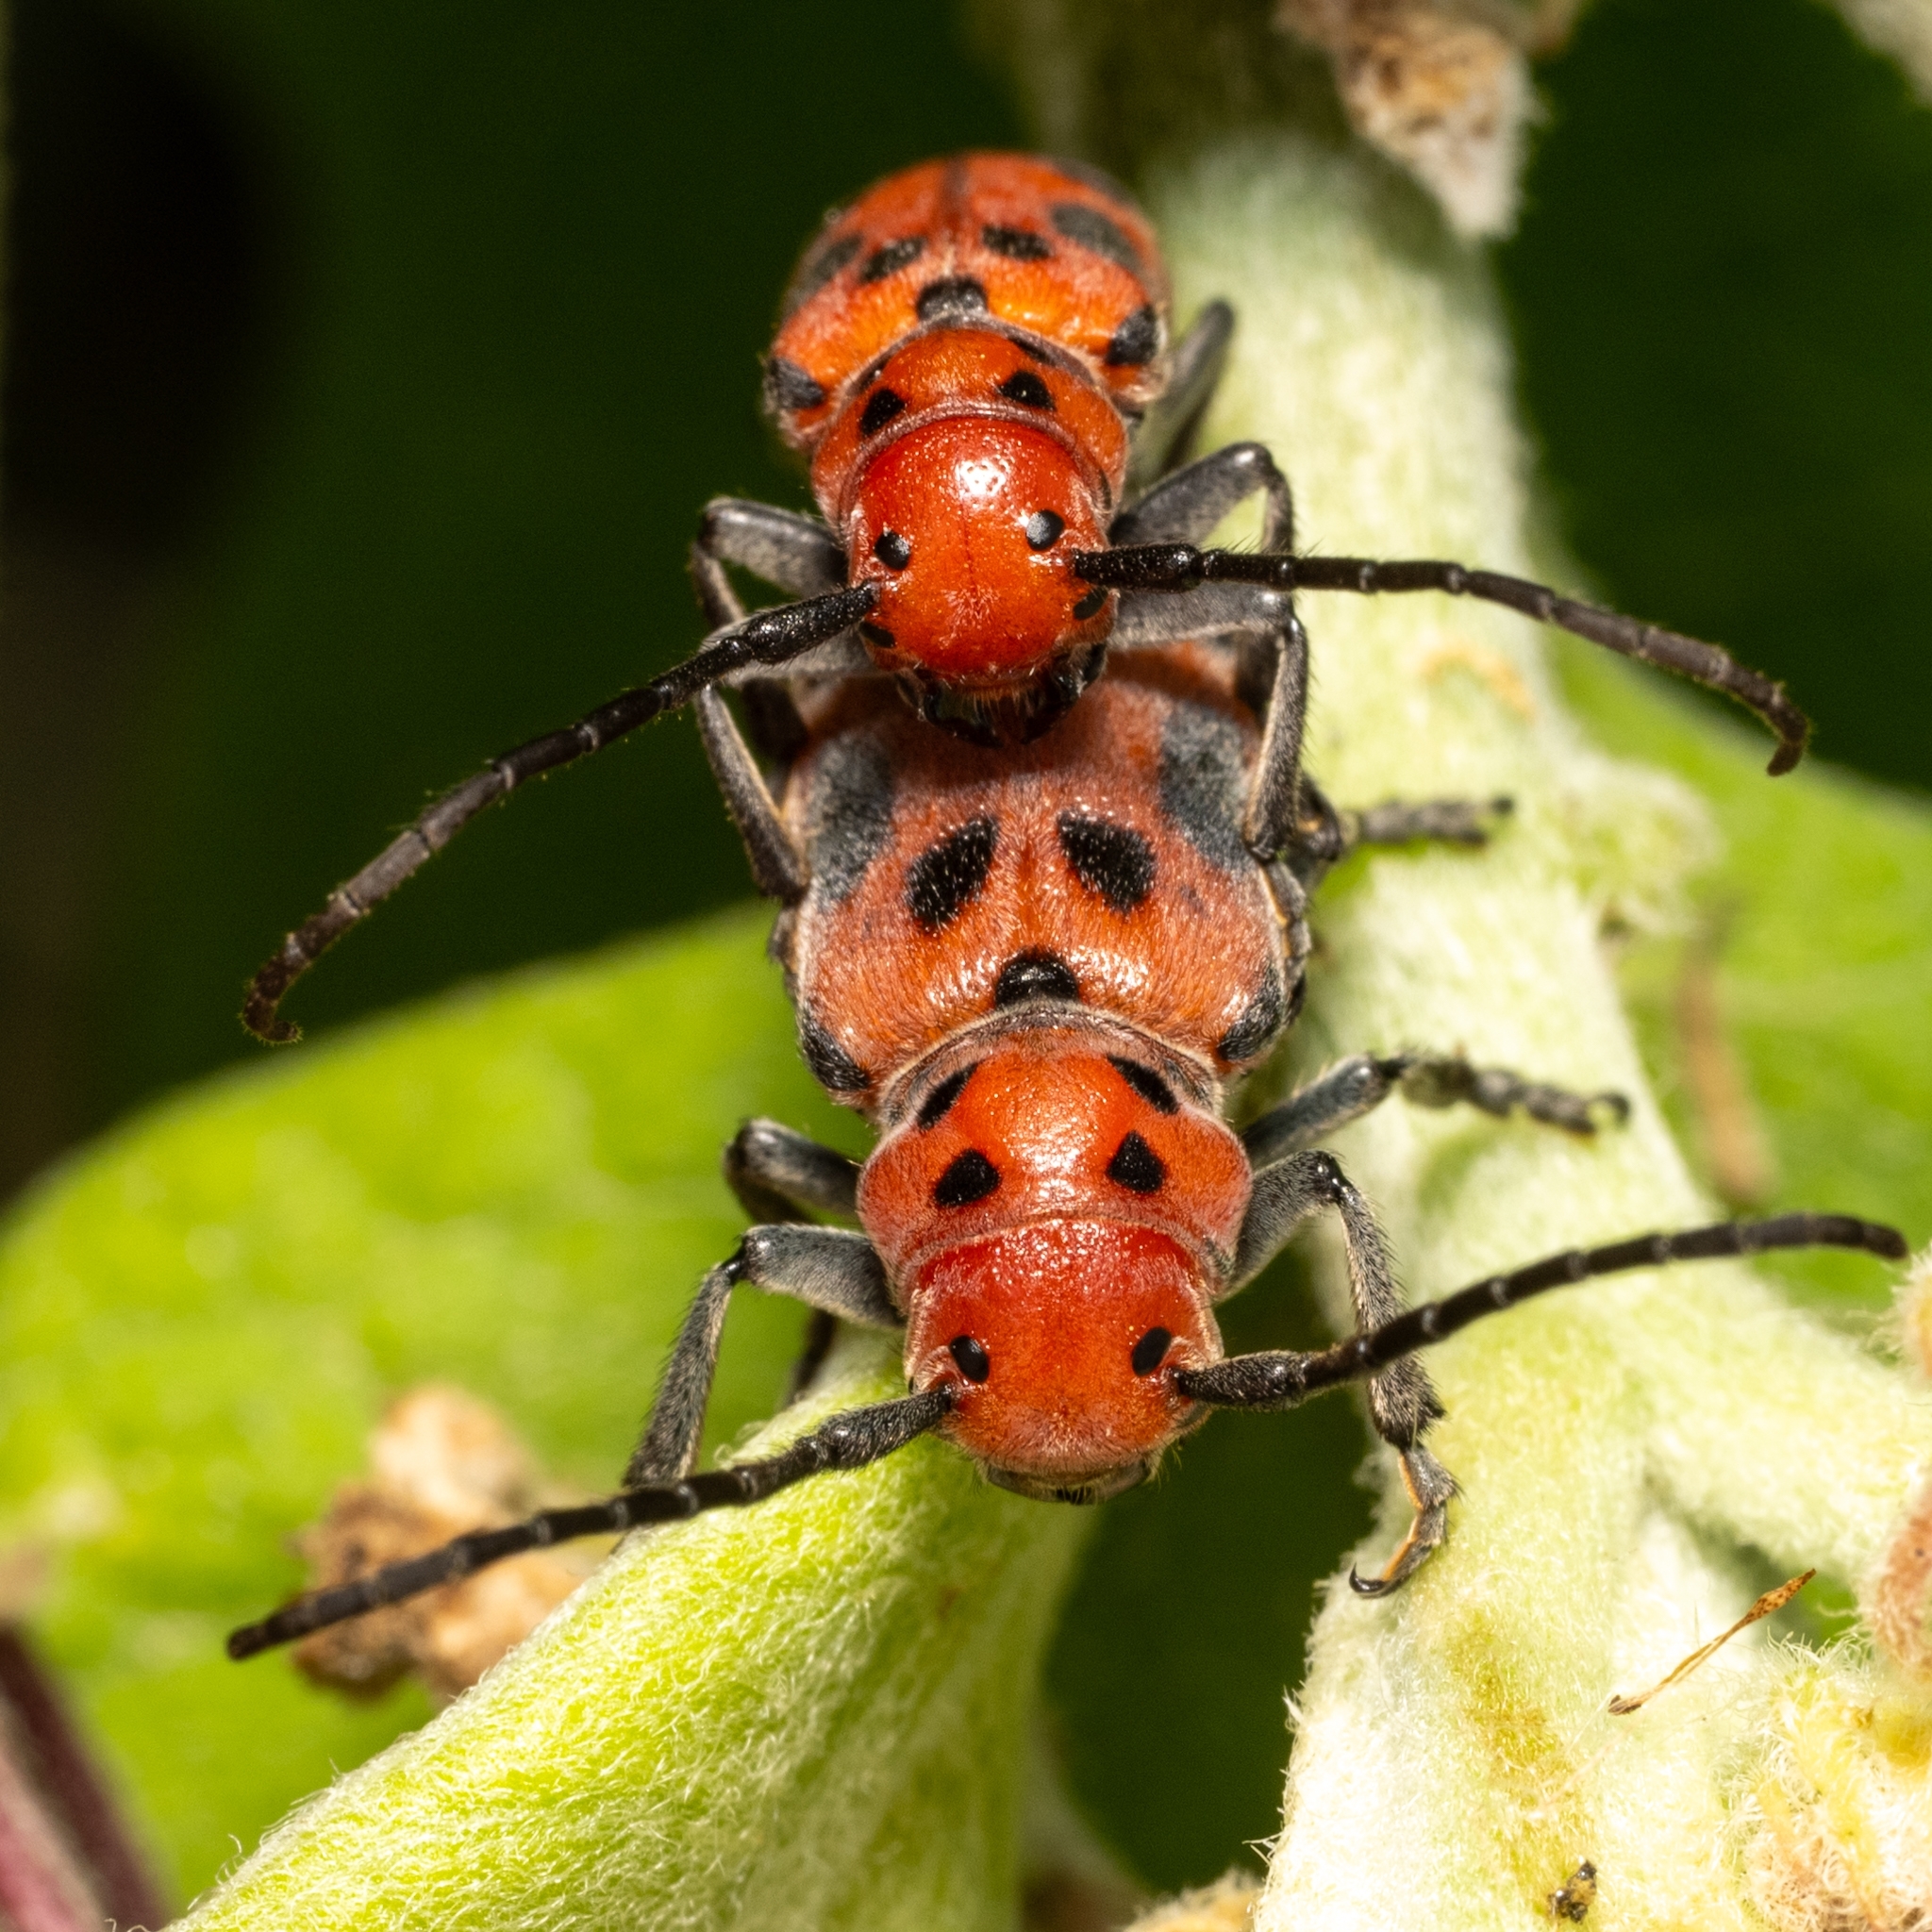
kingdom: Animalia
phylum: Arthropoda
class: Insecta
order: Coleoptera
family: Cerambycidae
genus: Tetraopes
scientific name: Tetraopes tetrophthalmus
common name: Red milkweed beetle
